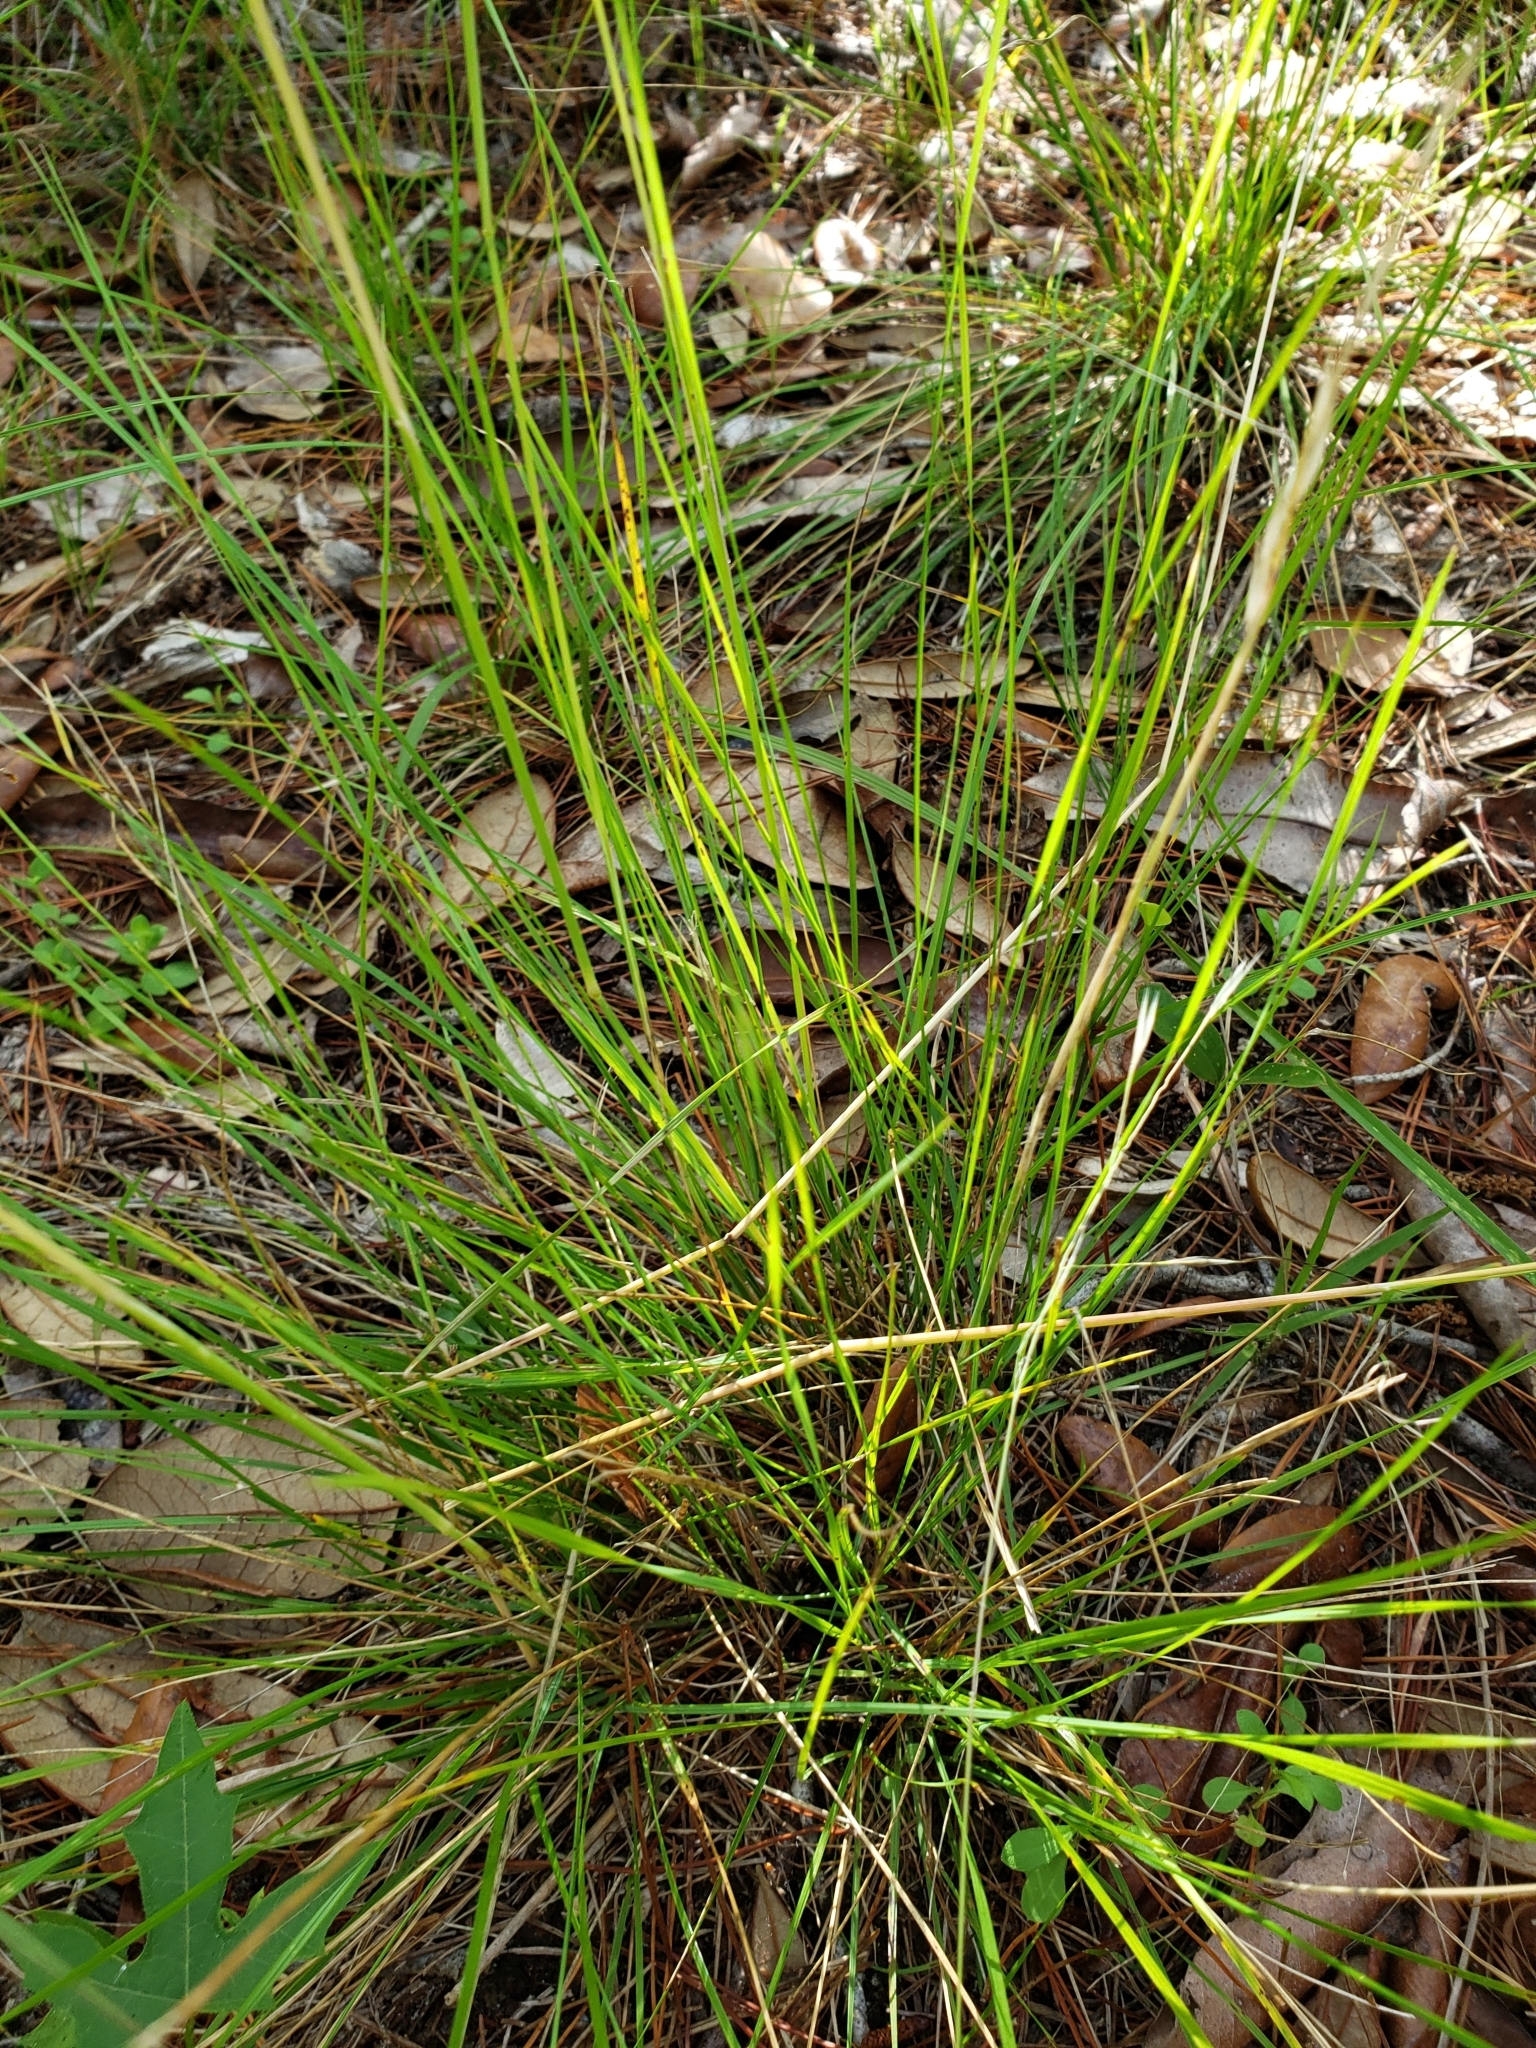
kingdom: Plantae
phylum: Tracheophyta
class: Liliopsida
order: Poales
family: Poaceae
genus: Piptochaetium
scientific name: Piptochaetium avenaceum
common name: Black bunchgrass
